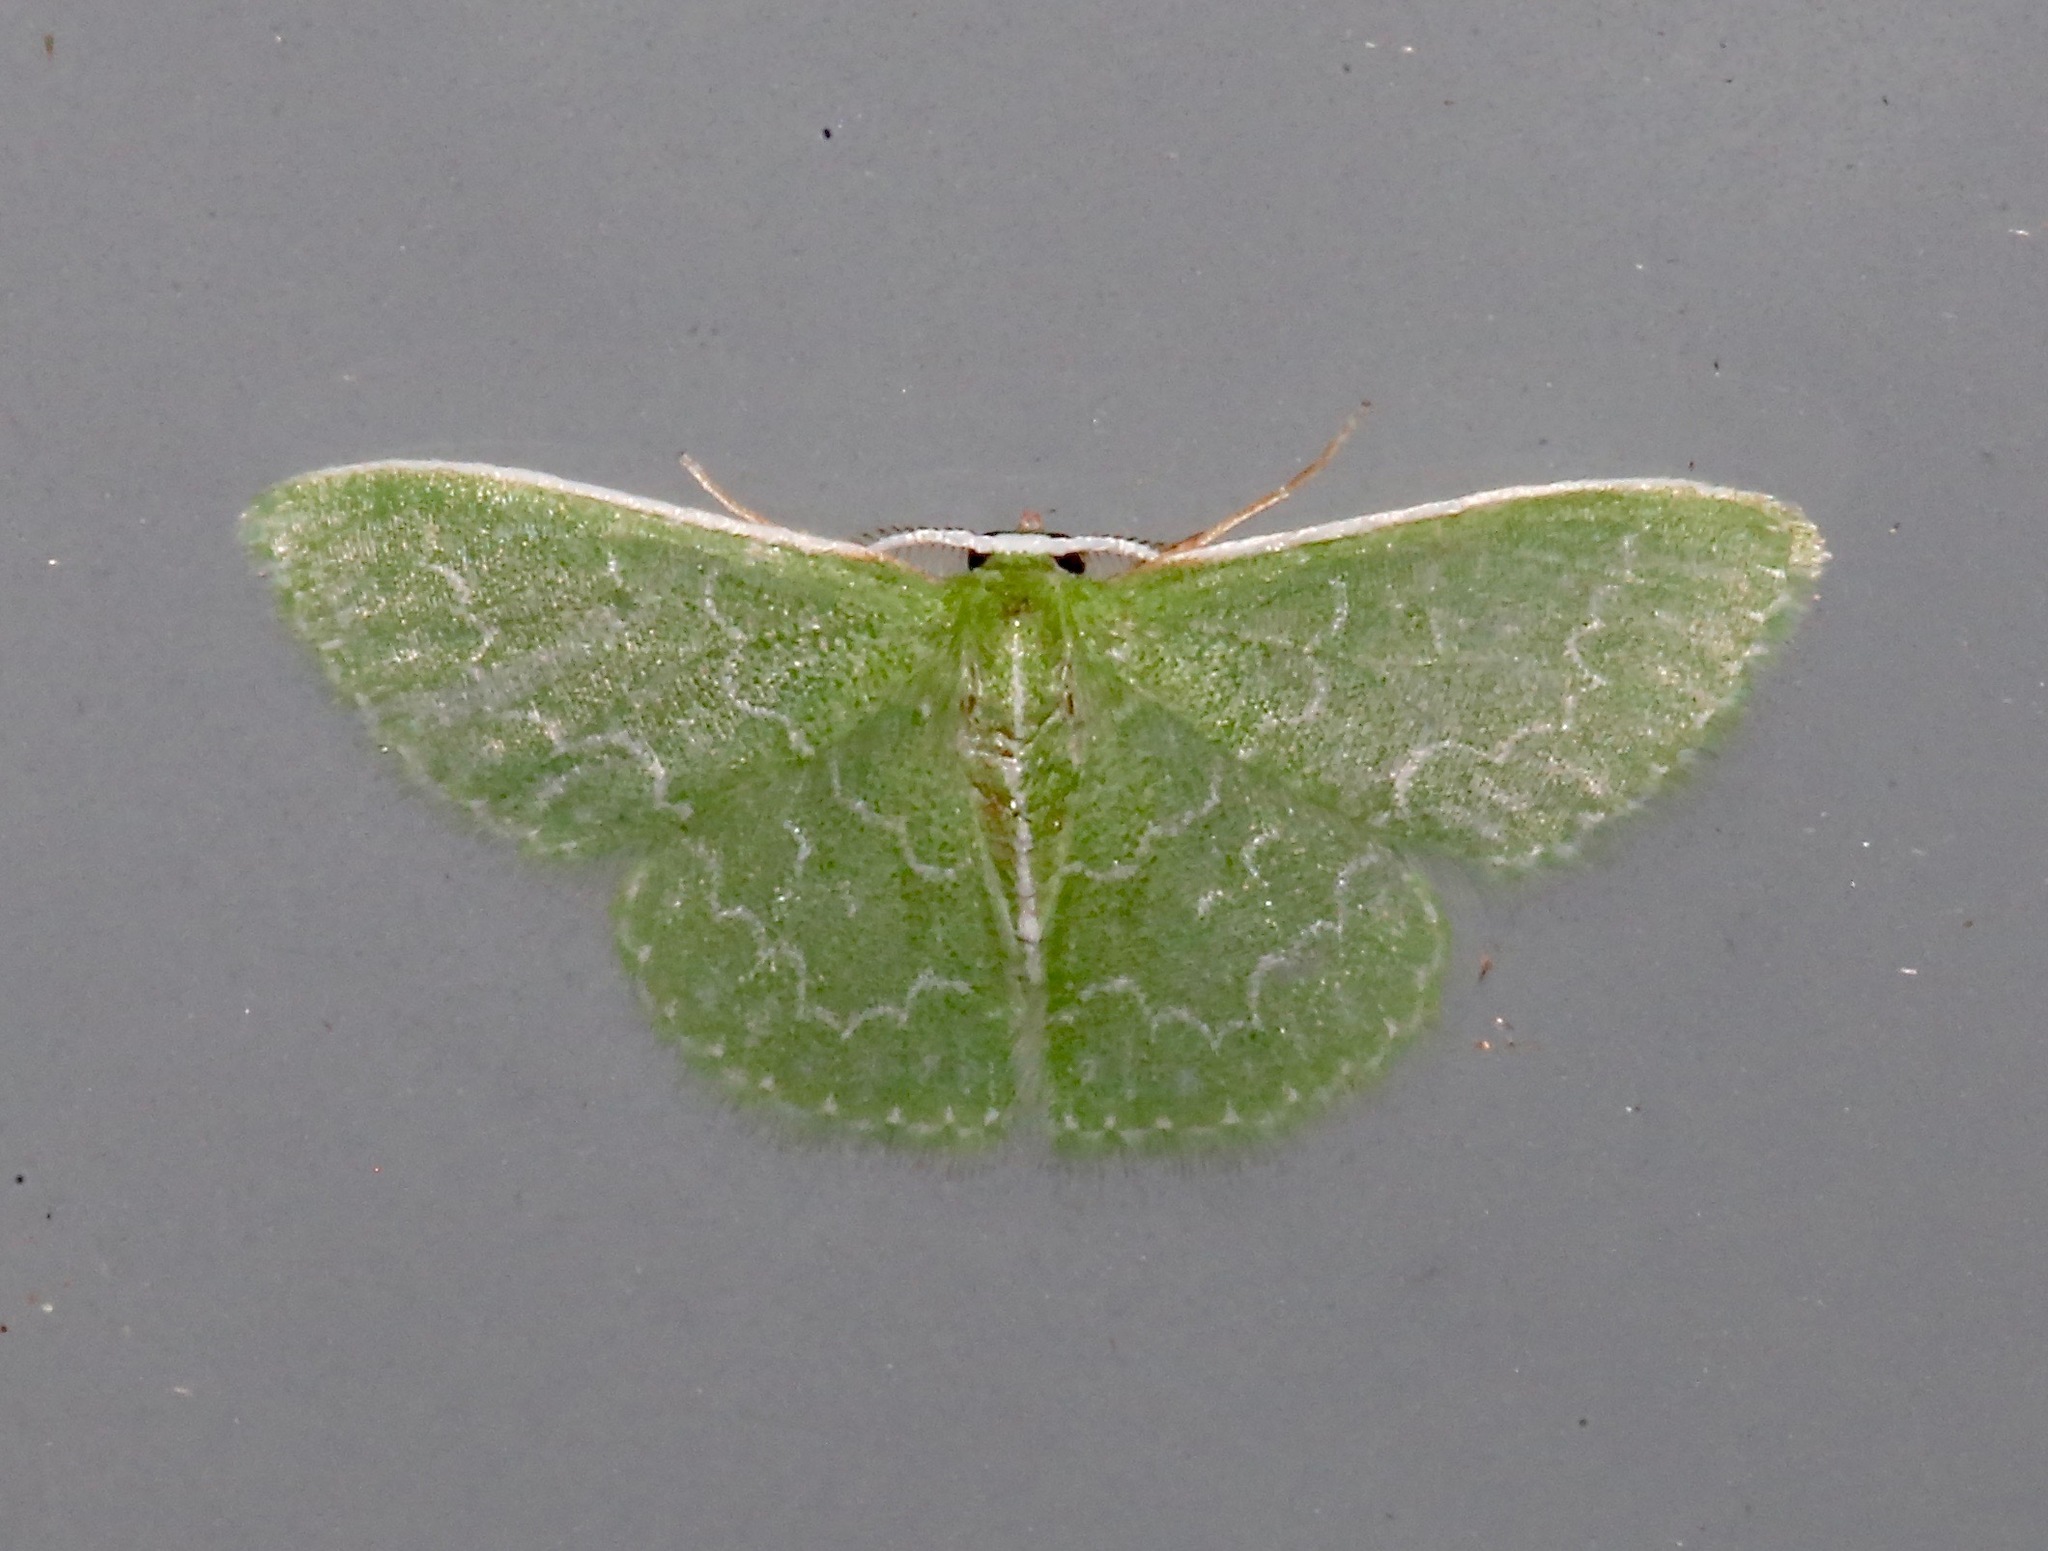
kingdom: Animalia
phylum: Arthropoda
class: Insecta
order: Lepidoptera
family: Geometridae
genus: Synchlora
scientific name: Synchlora frondaria
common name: Southern emerald
